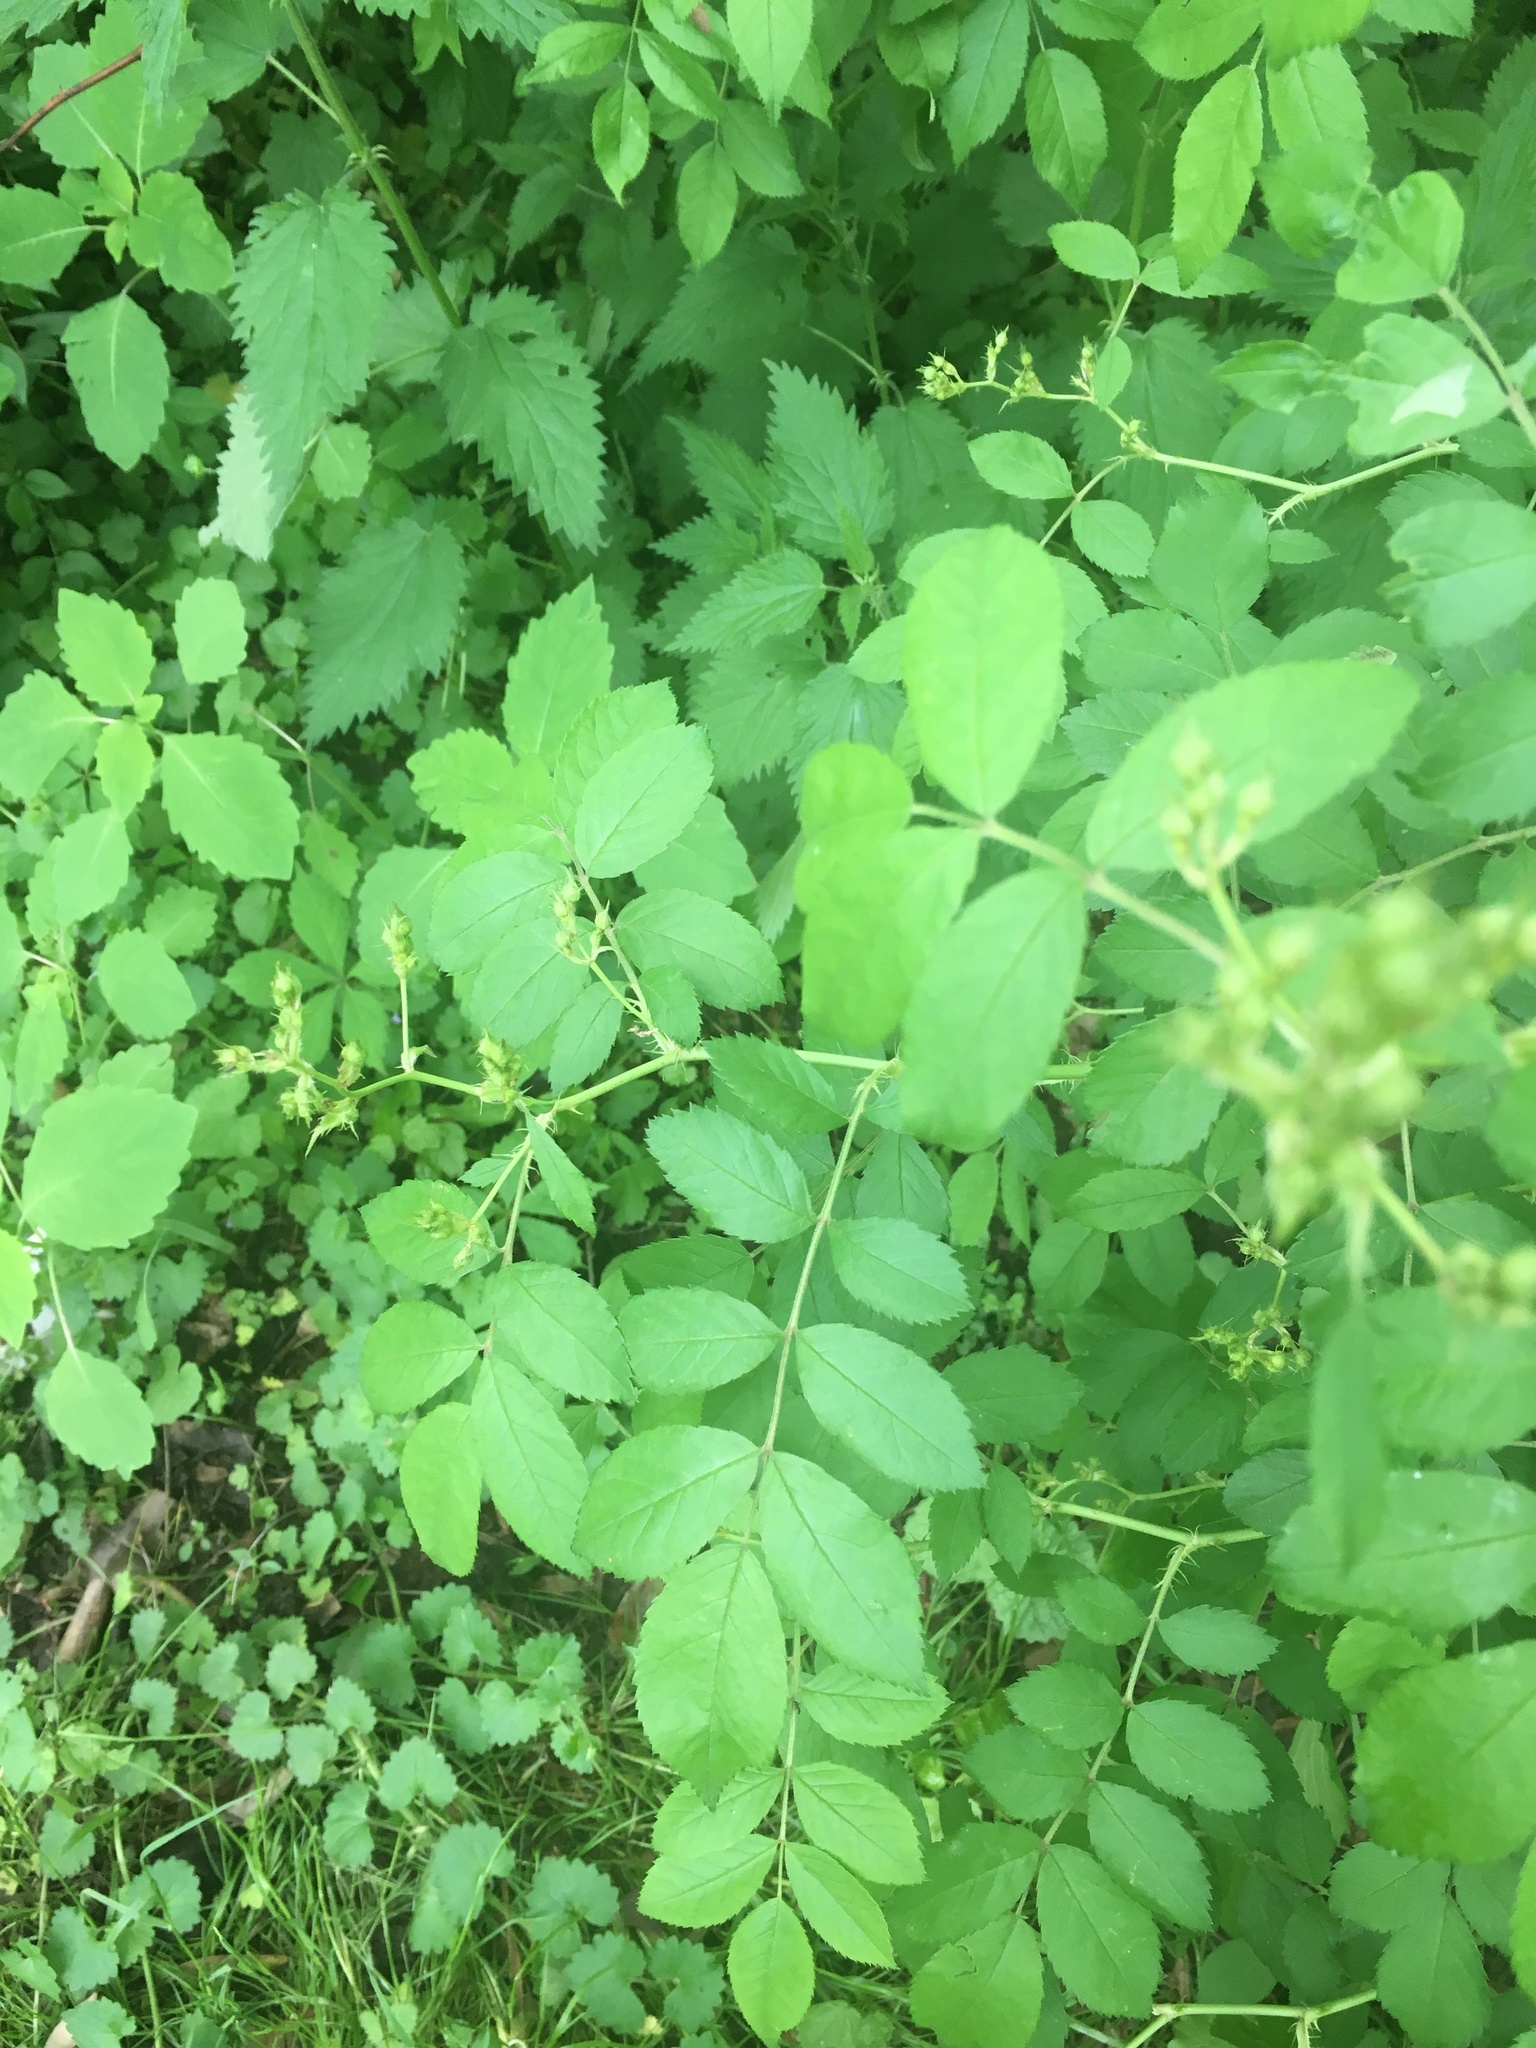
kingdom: Plantae
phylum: Tracheophyta
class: Magnoliopsida
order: Rosales
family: Rosaceae
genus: Rosa
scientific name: Rosa multiflora
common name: Multiflora rose
